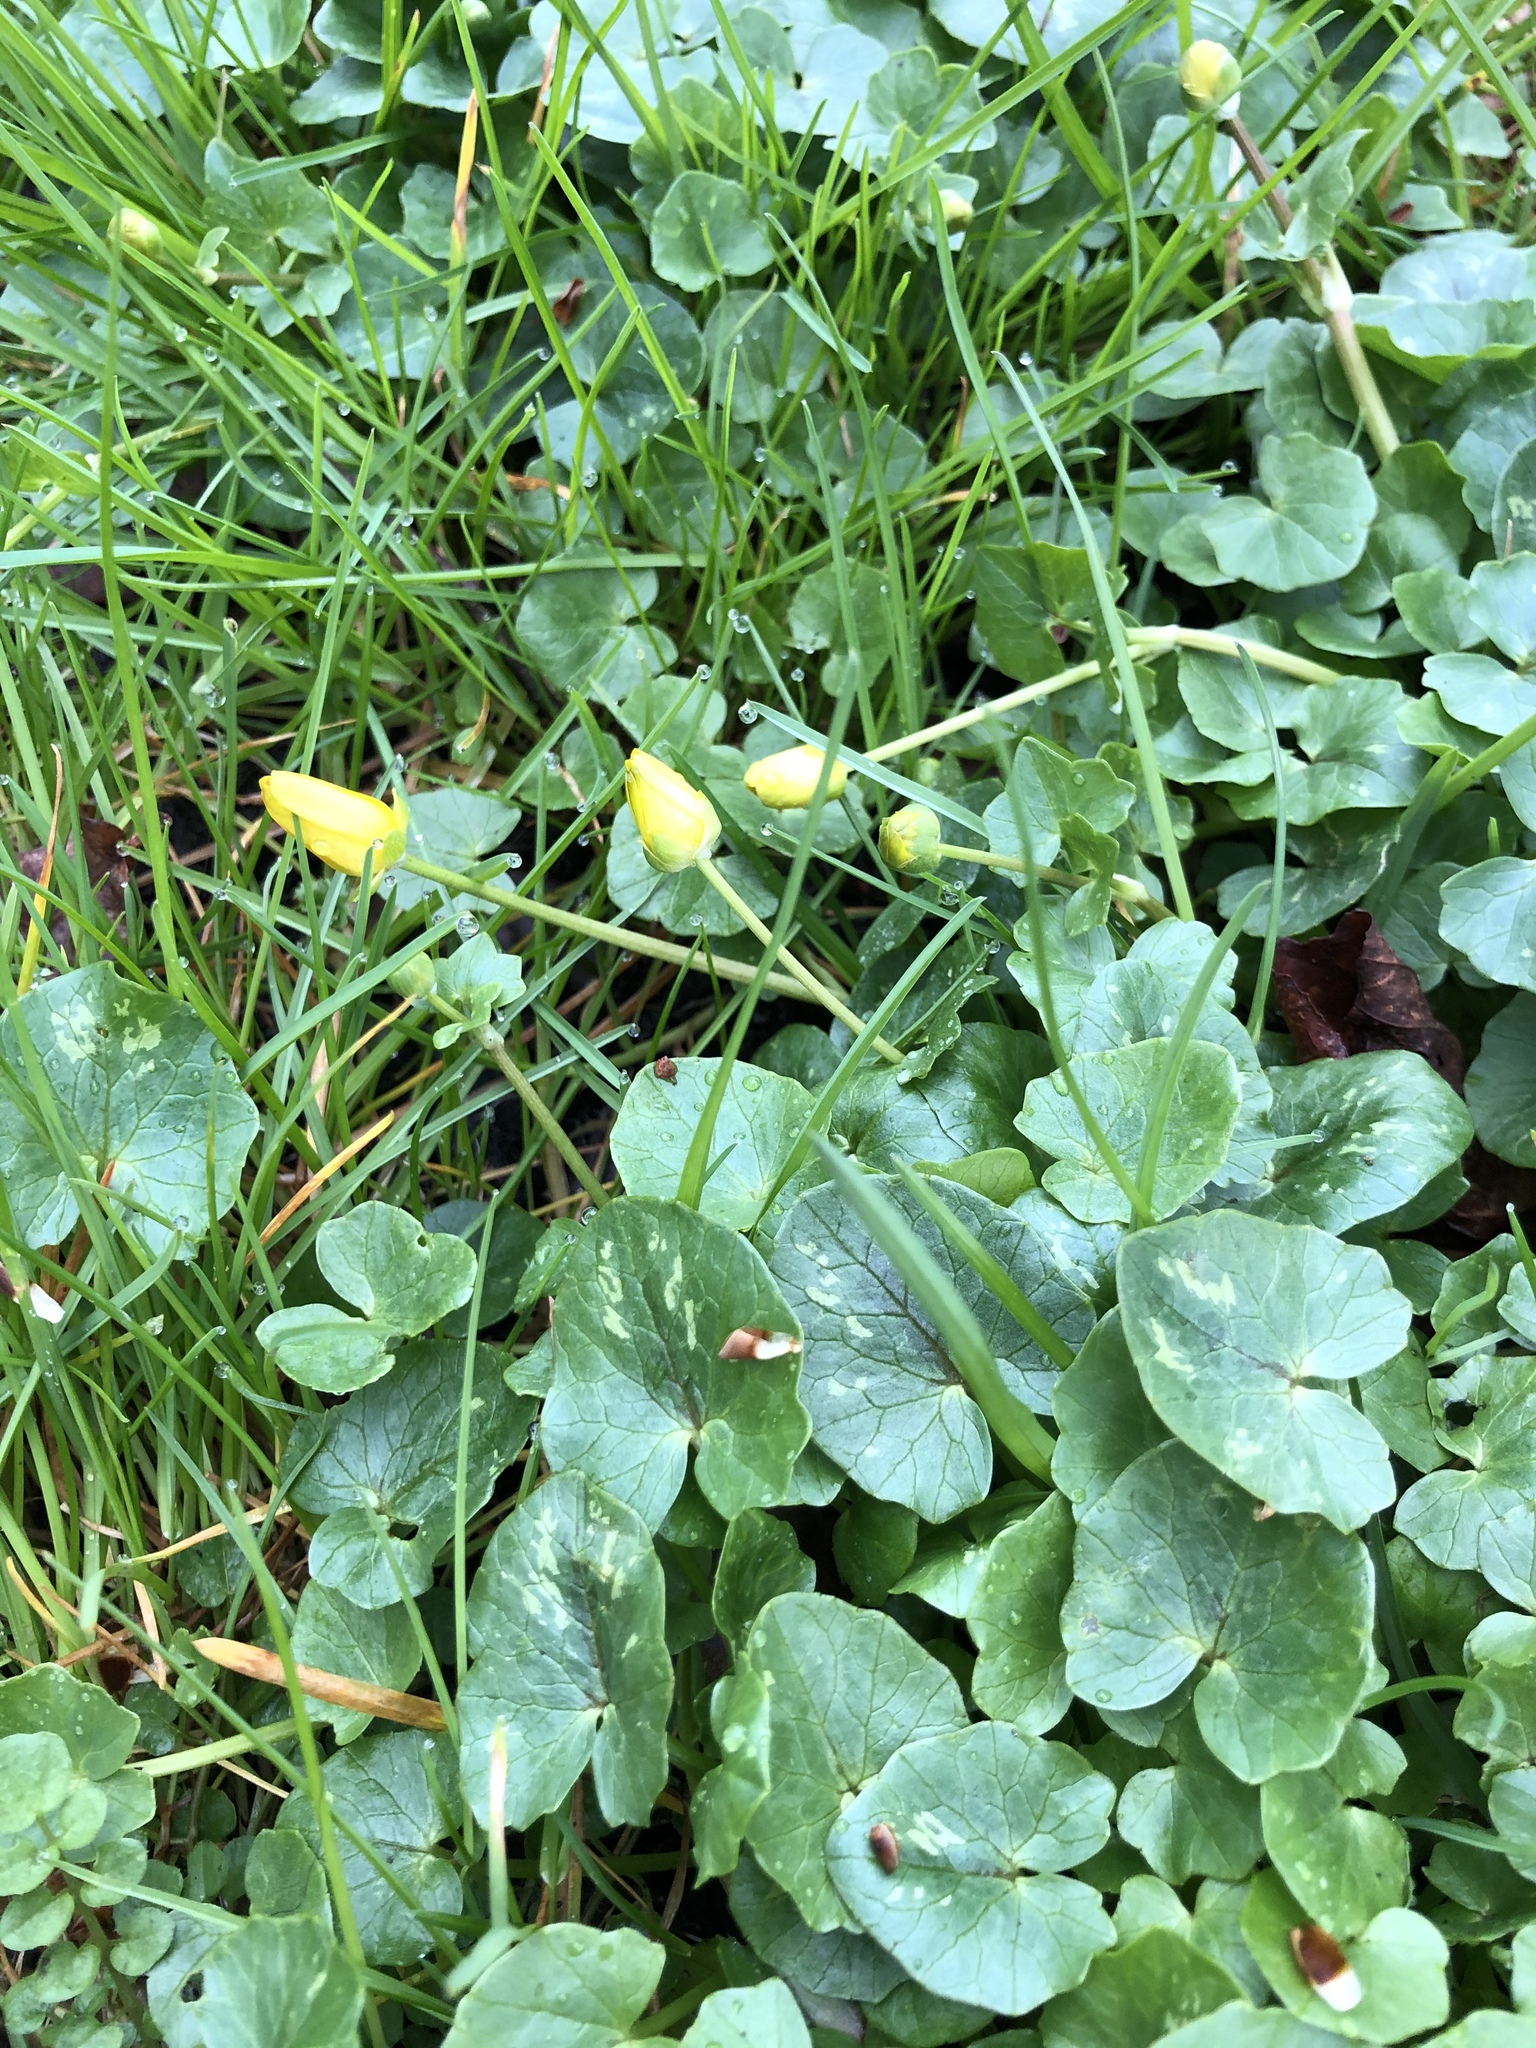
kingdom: Plantae
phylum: Tracheophyta
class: Magnoliopsida
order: Ranunculales
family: Ranunculaceae
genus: Ficaria
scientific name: Ficaria verna
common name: Lesser celandine
